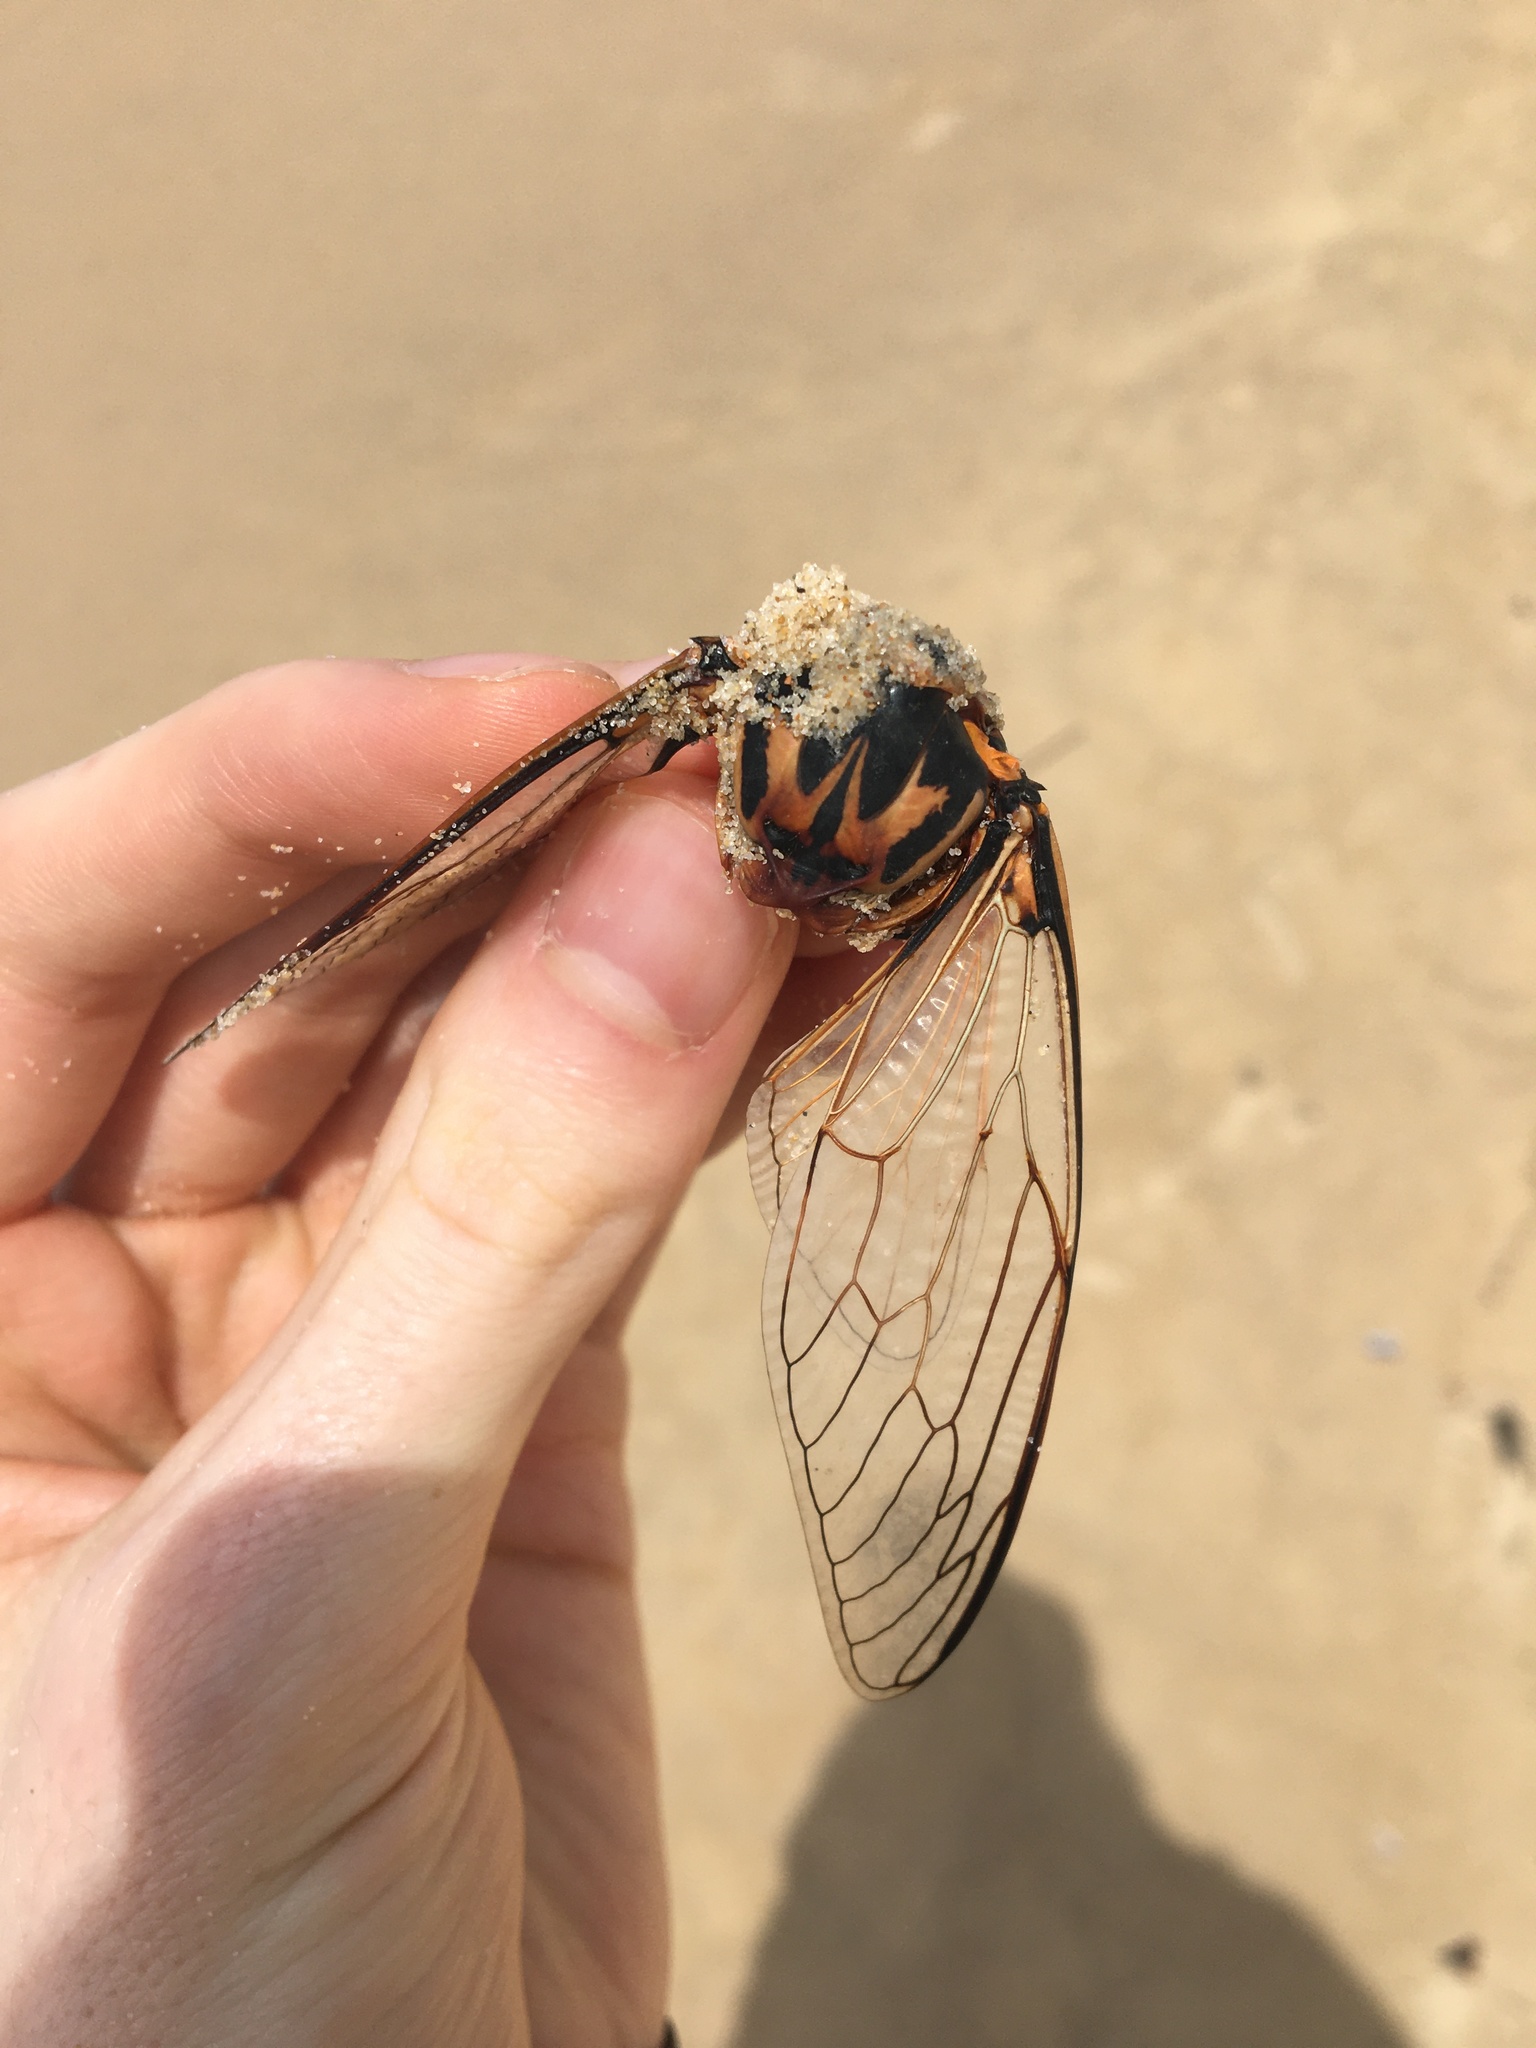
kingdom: Animalia
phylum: Arthropoda
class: Insecta
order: Hemiptera
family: Cicadidae
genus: Thopha
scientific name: Thopha saccata
